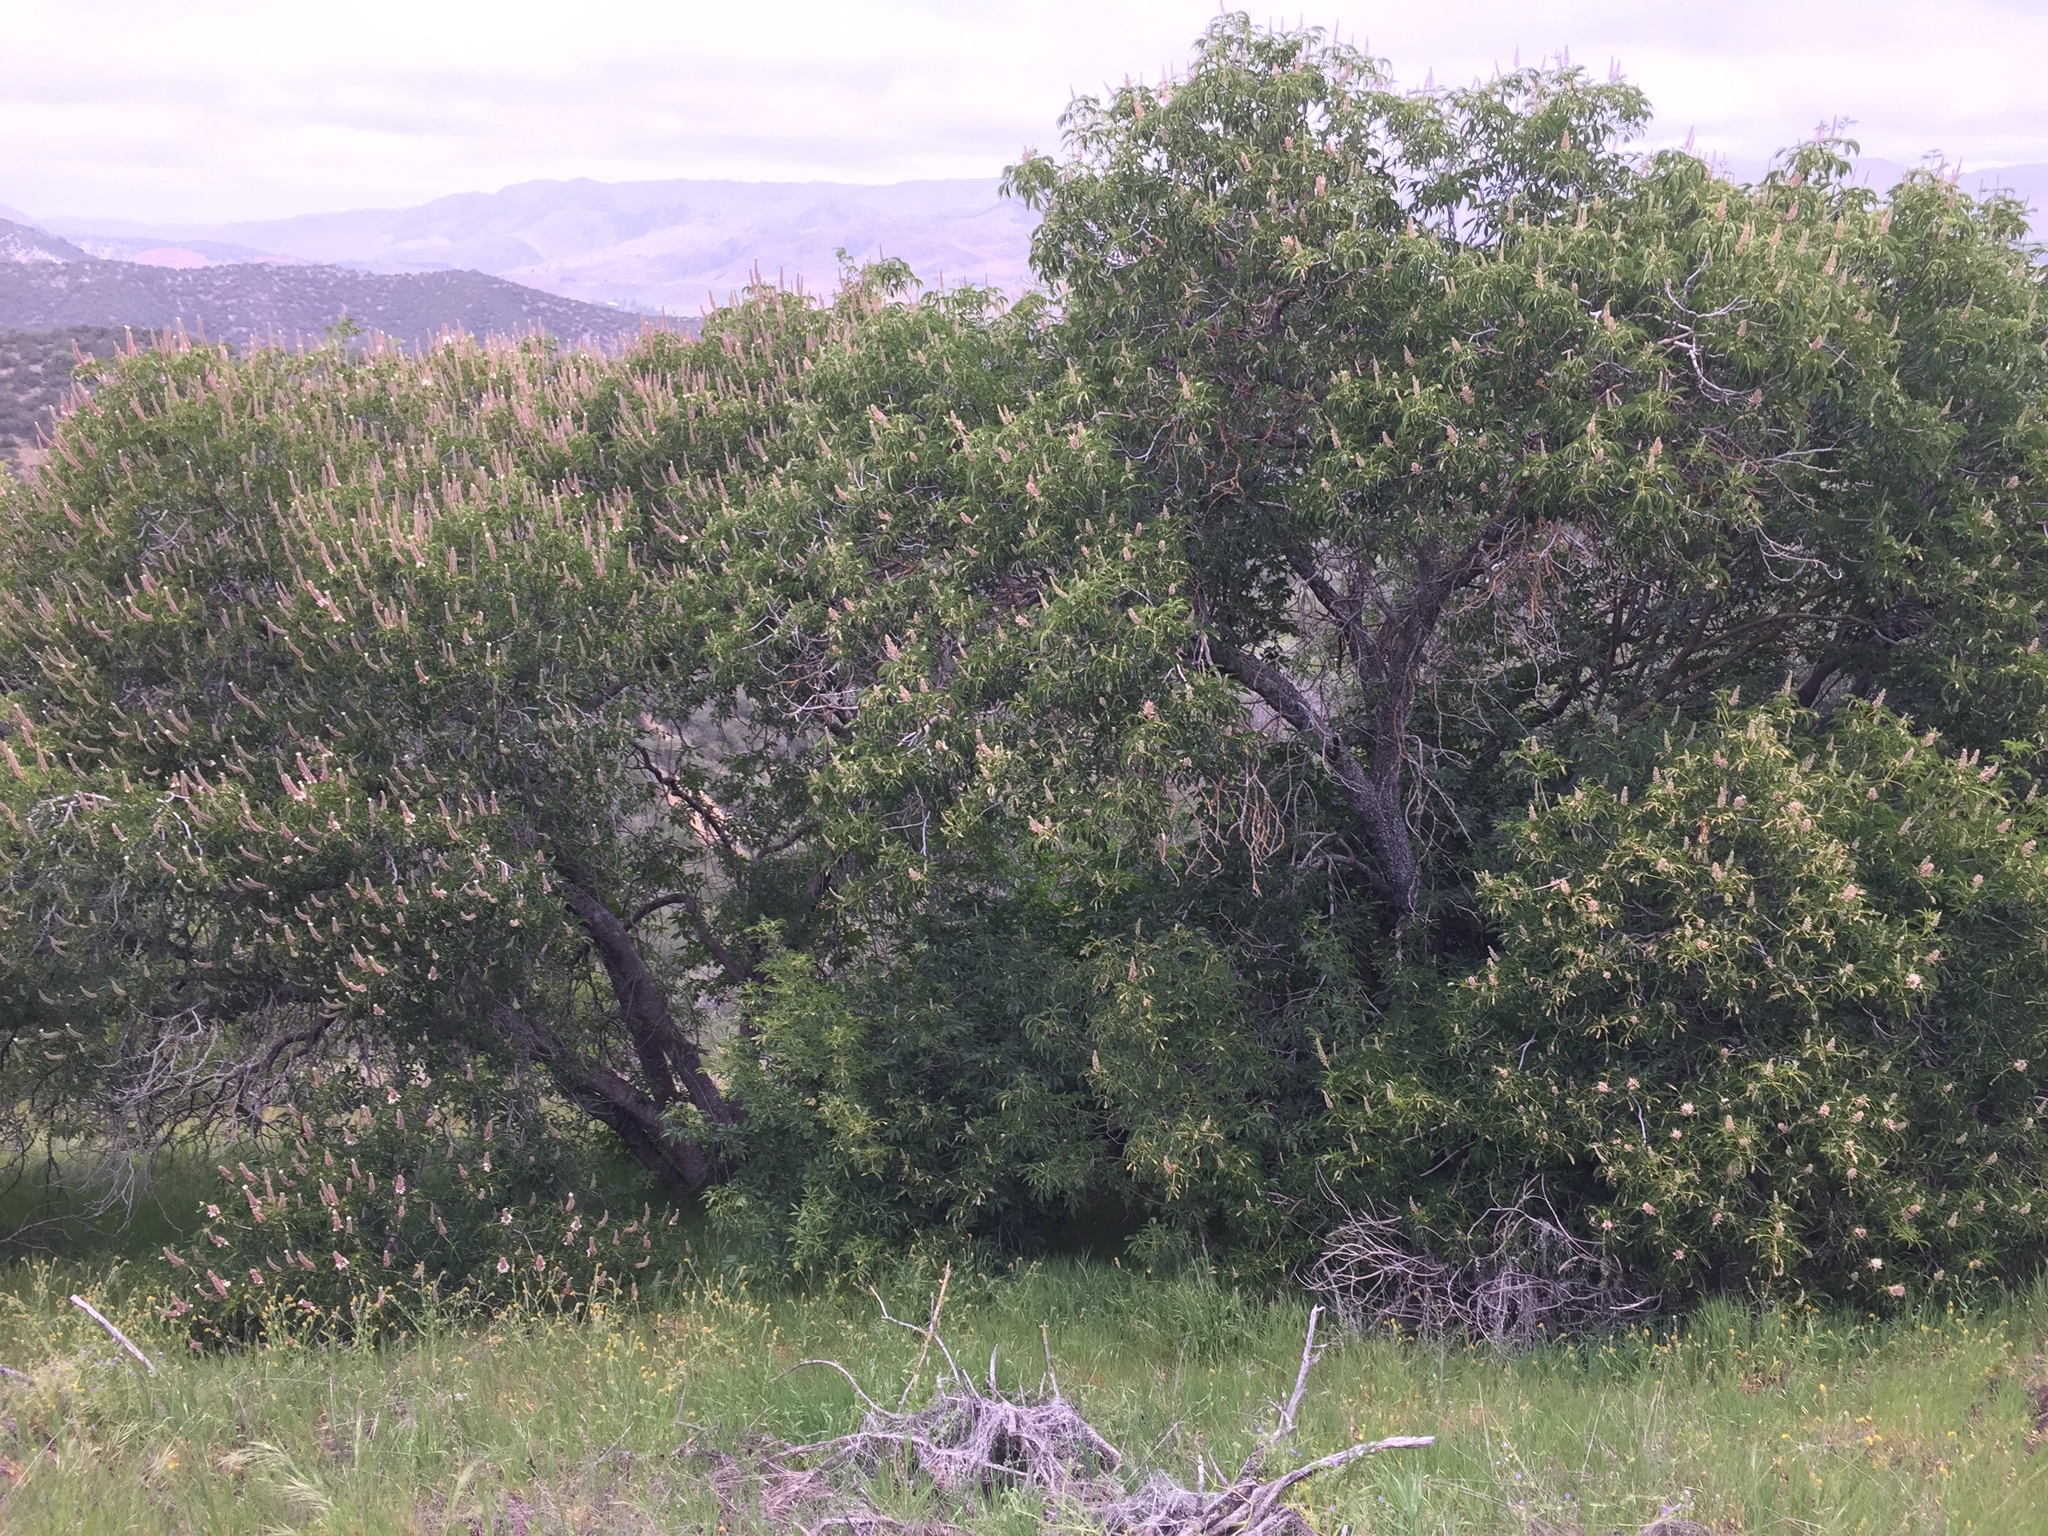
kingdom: Plantae
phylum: Tracheophyta
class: Magnoliopsida
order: Sapindales
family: Sapindaceae
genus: Aesculus
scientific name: Aesculus californica
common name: California buckeye
